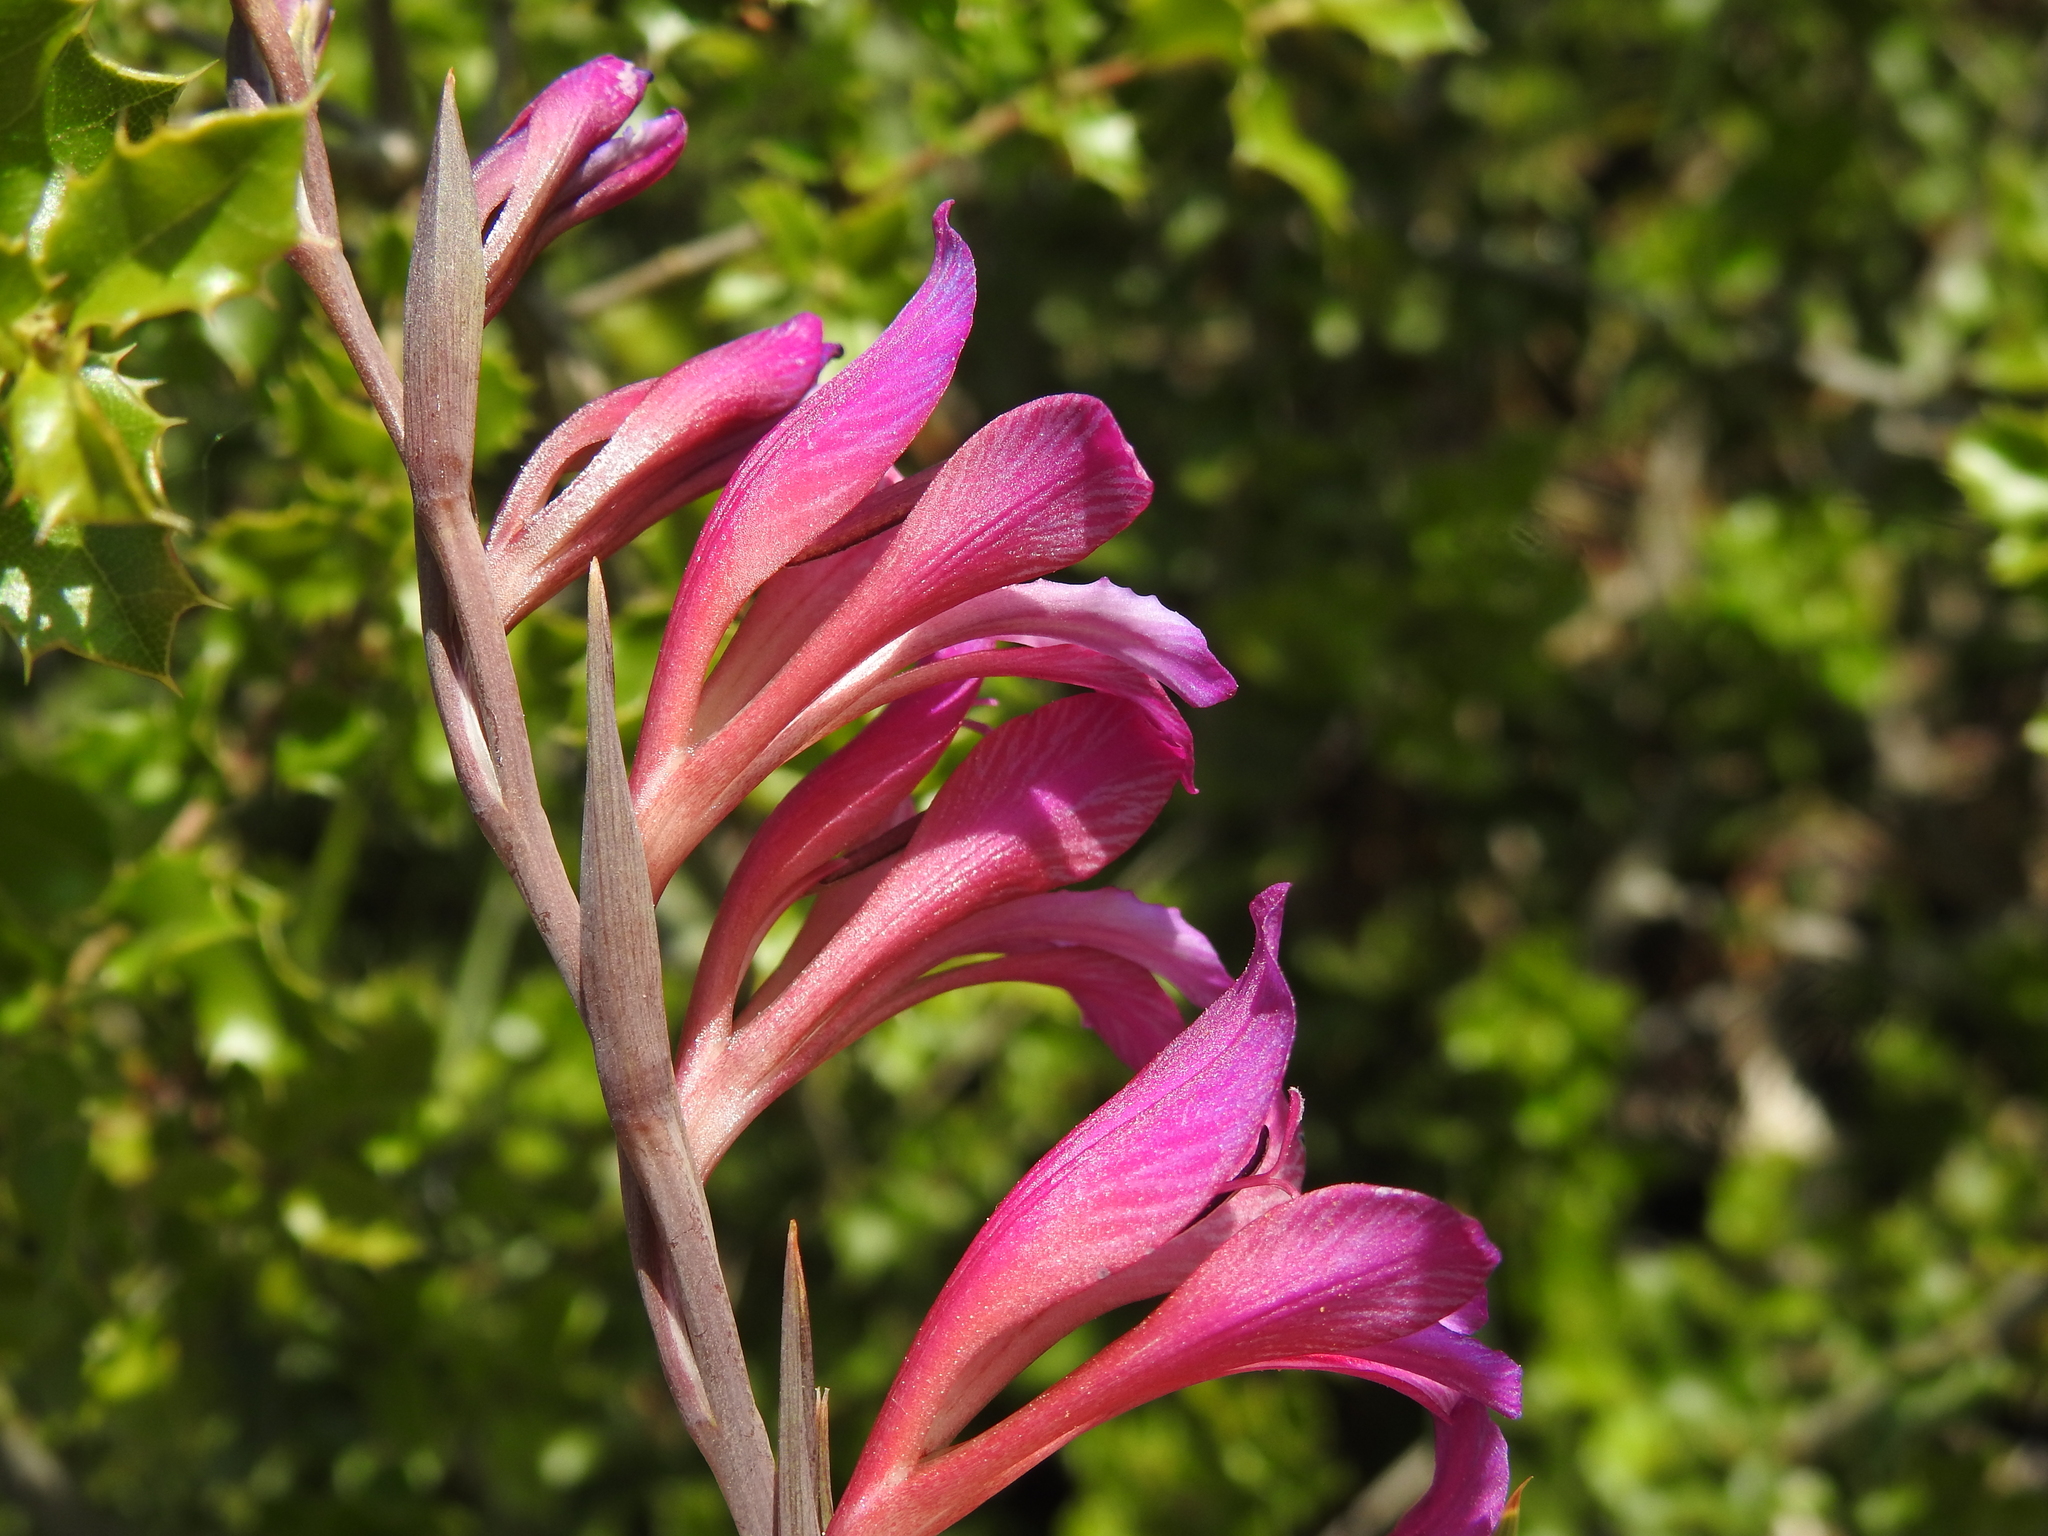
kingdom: Plantae
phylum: Tracheophyta
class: Liliopsida
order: Asparagales
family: Iridaceae
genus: Gladiolus
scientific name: Gladiolus dubius
